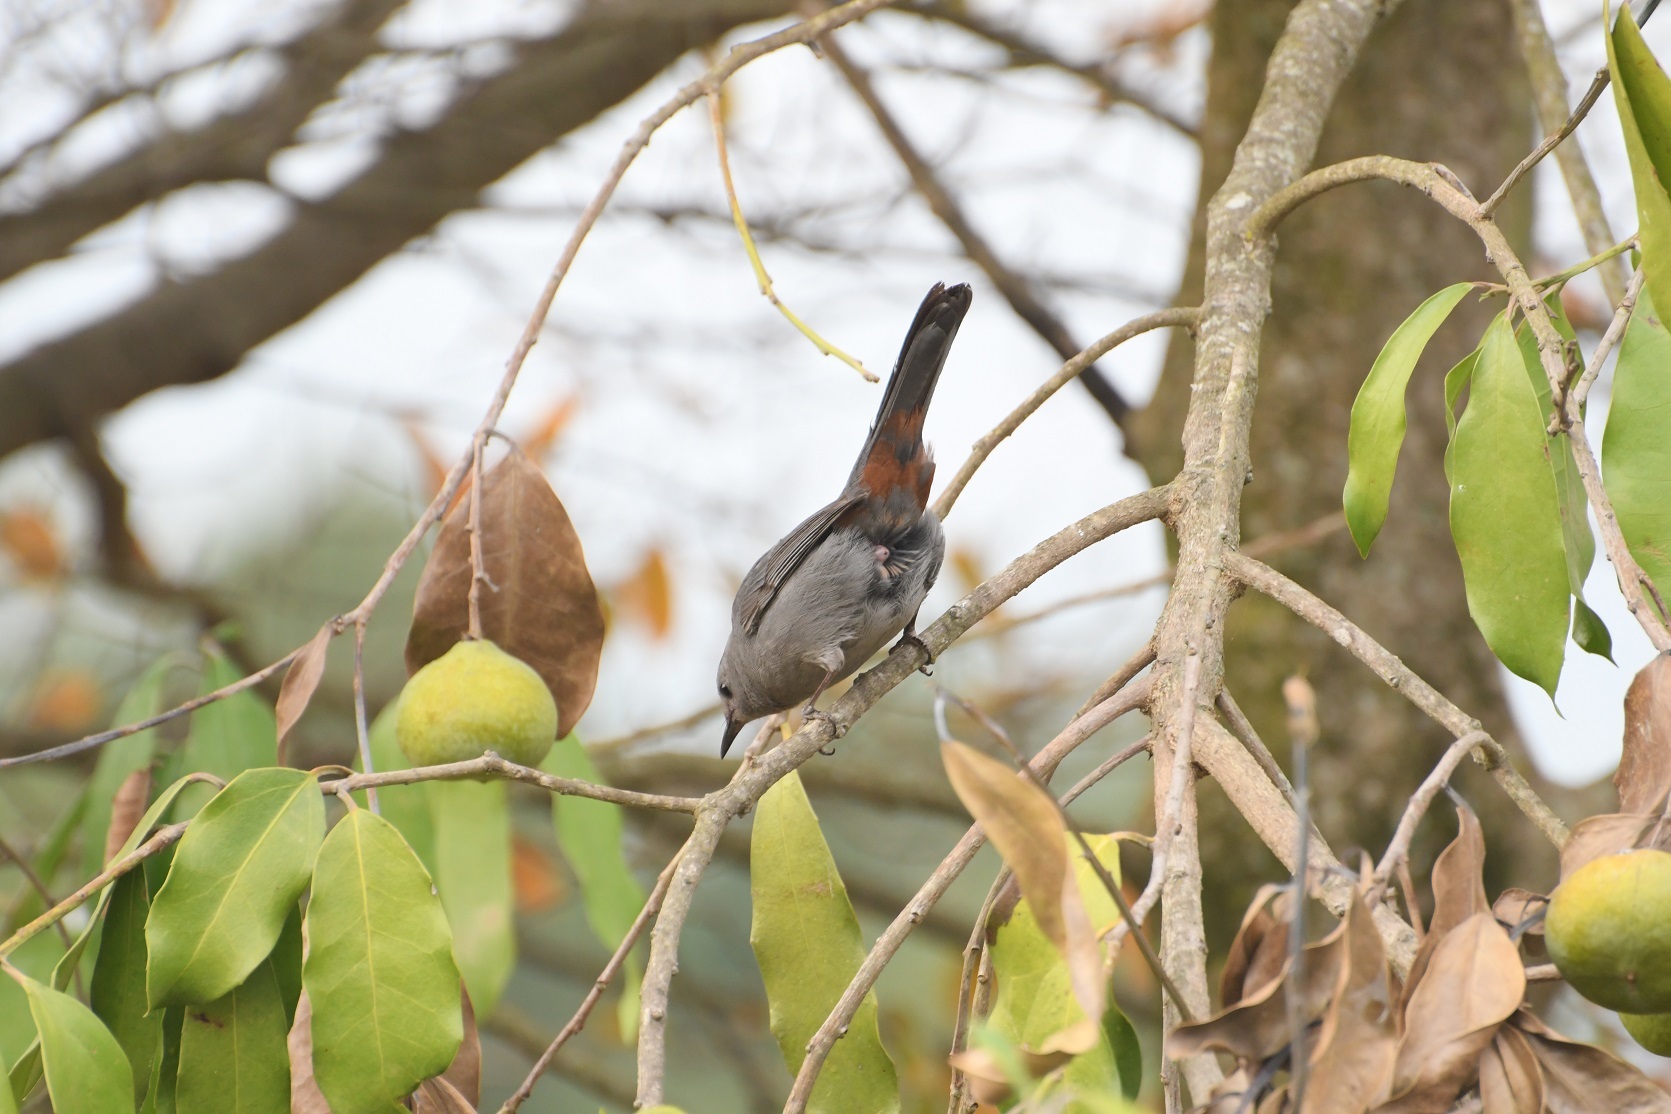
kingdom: Animalia
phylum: Chordata
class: Aves
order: Passeriformes
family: Mimidae
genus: Dumetella
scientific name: Dumetella carolinensis
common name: Gray catbird
